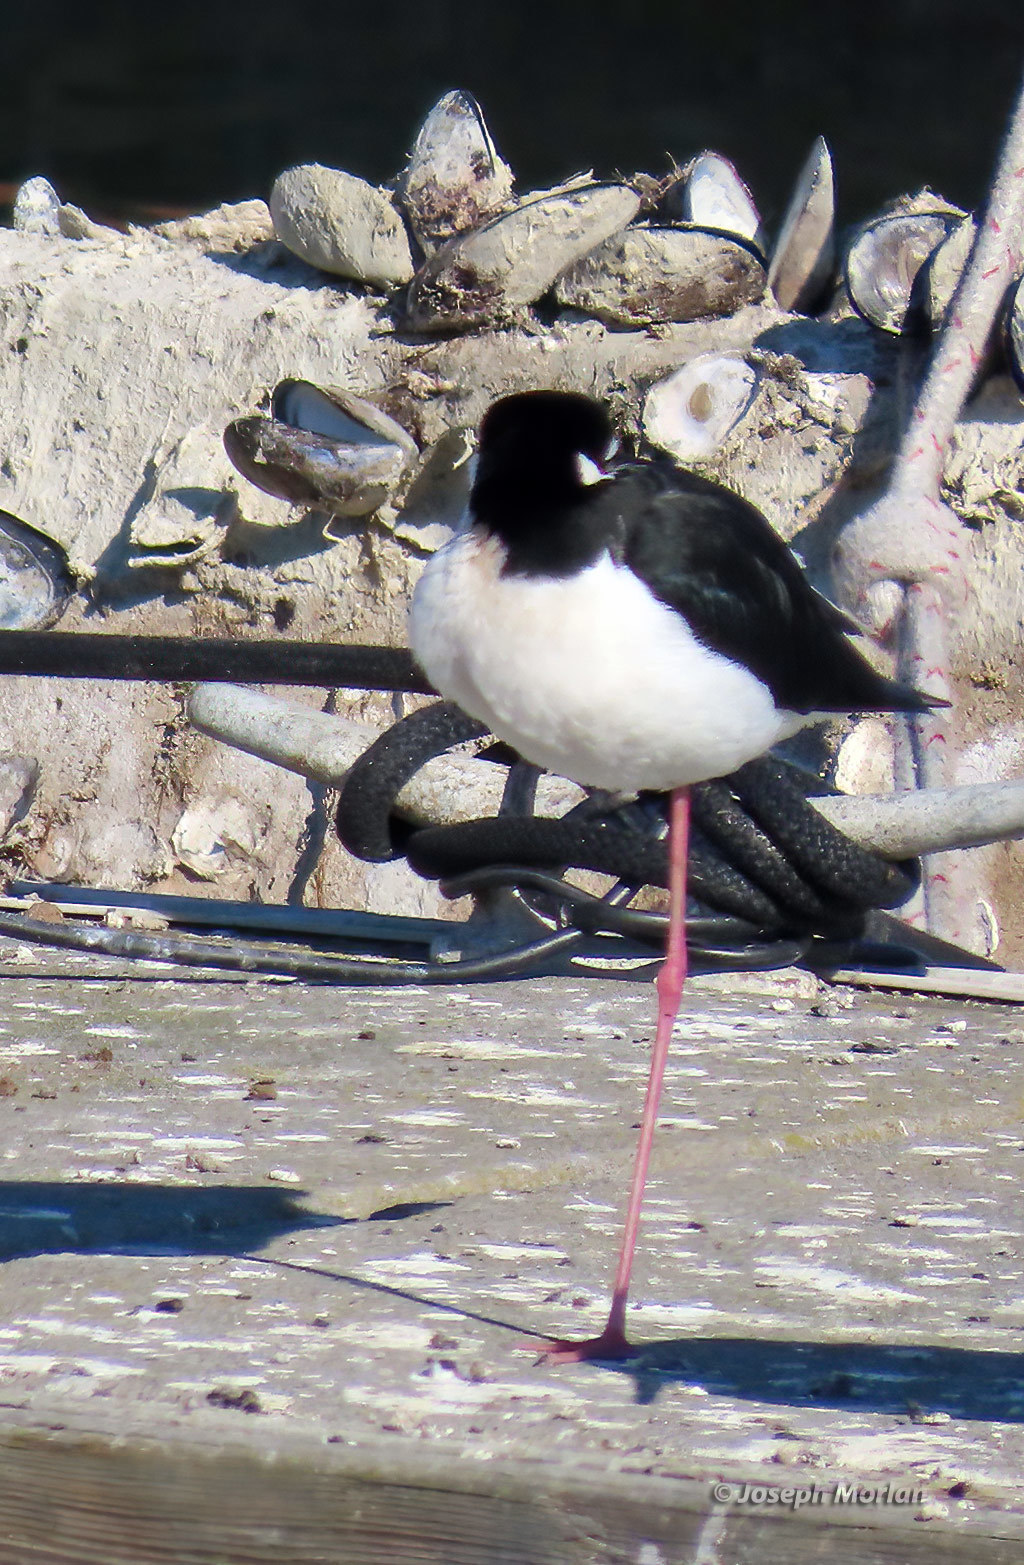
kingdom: Animalia
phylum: Chordata
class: Aves
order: Charadriiformes
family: Recurvirostridae
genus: Himantopus
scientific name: Himantopus mexicanus
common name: Black-necked stilt
